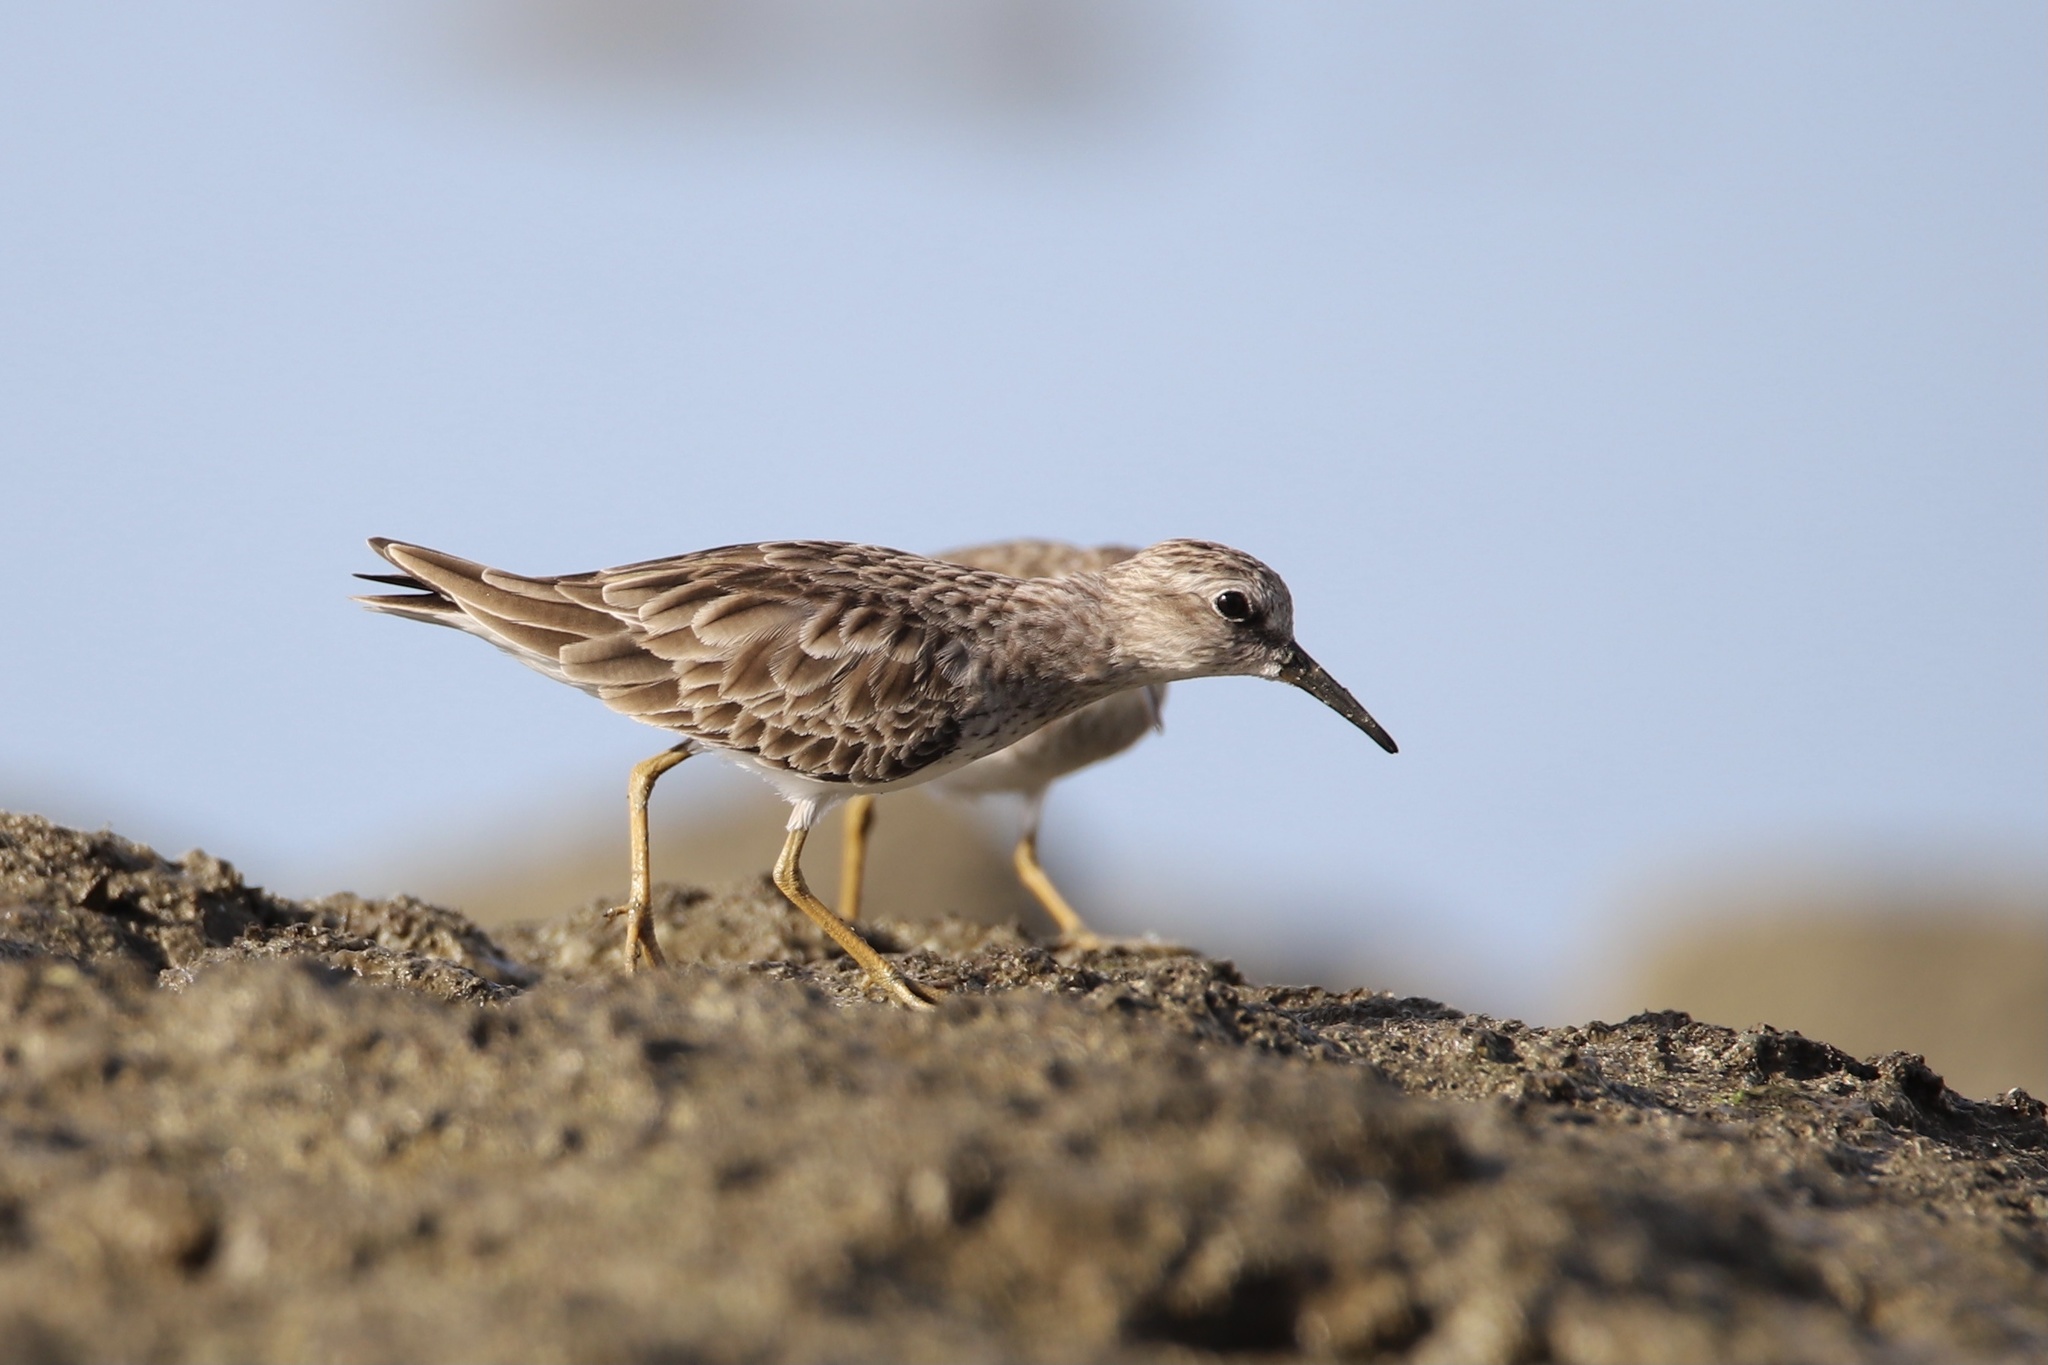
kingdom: Animalia
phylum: Chordata
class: Aves
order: Charadriiformes
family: Scolopacidae
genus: Calidris
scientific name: Calidris minutilla
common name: Least sandpiper
